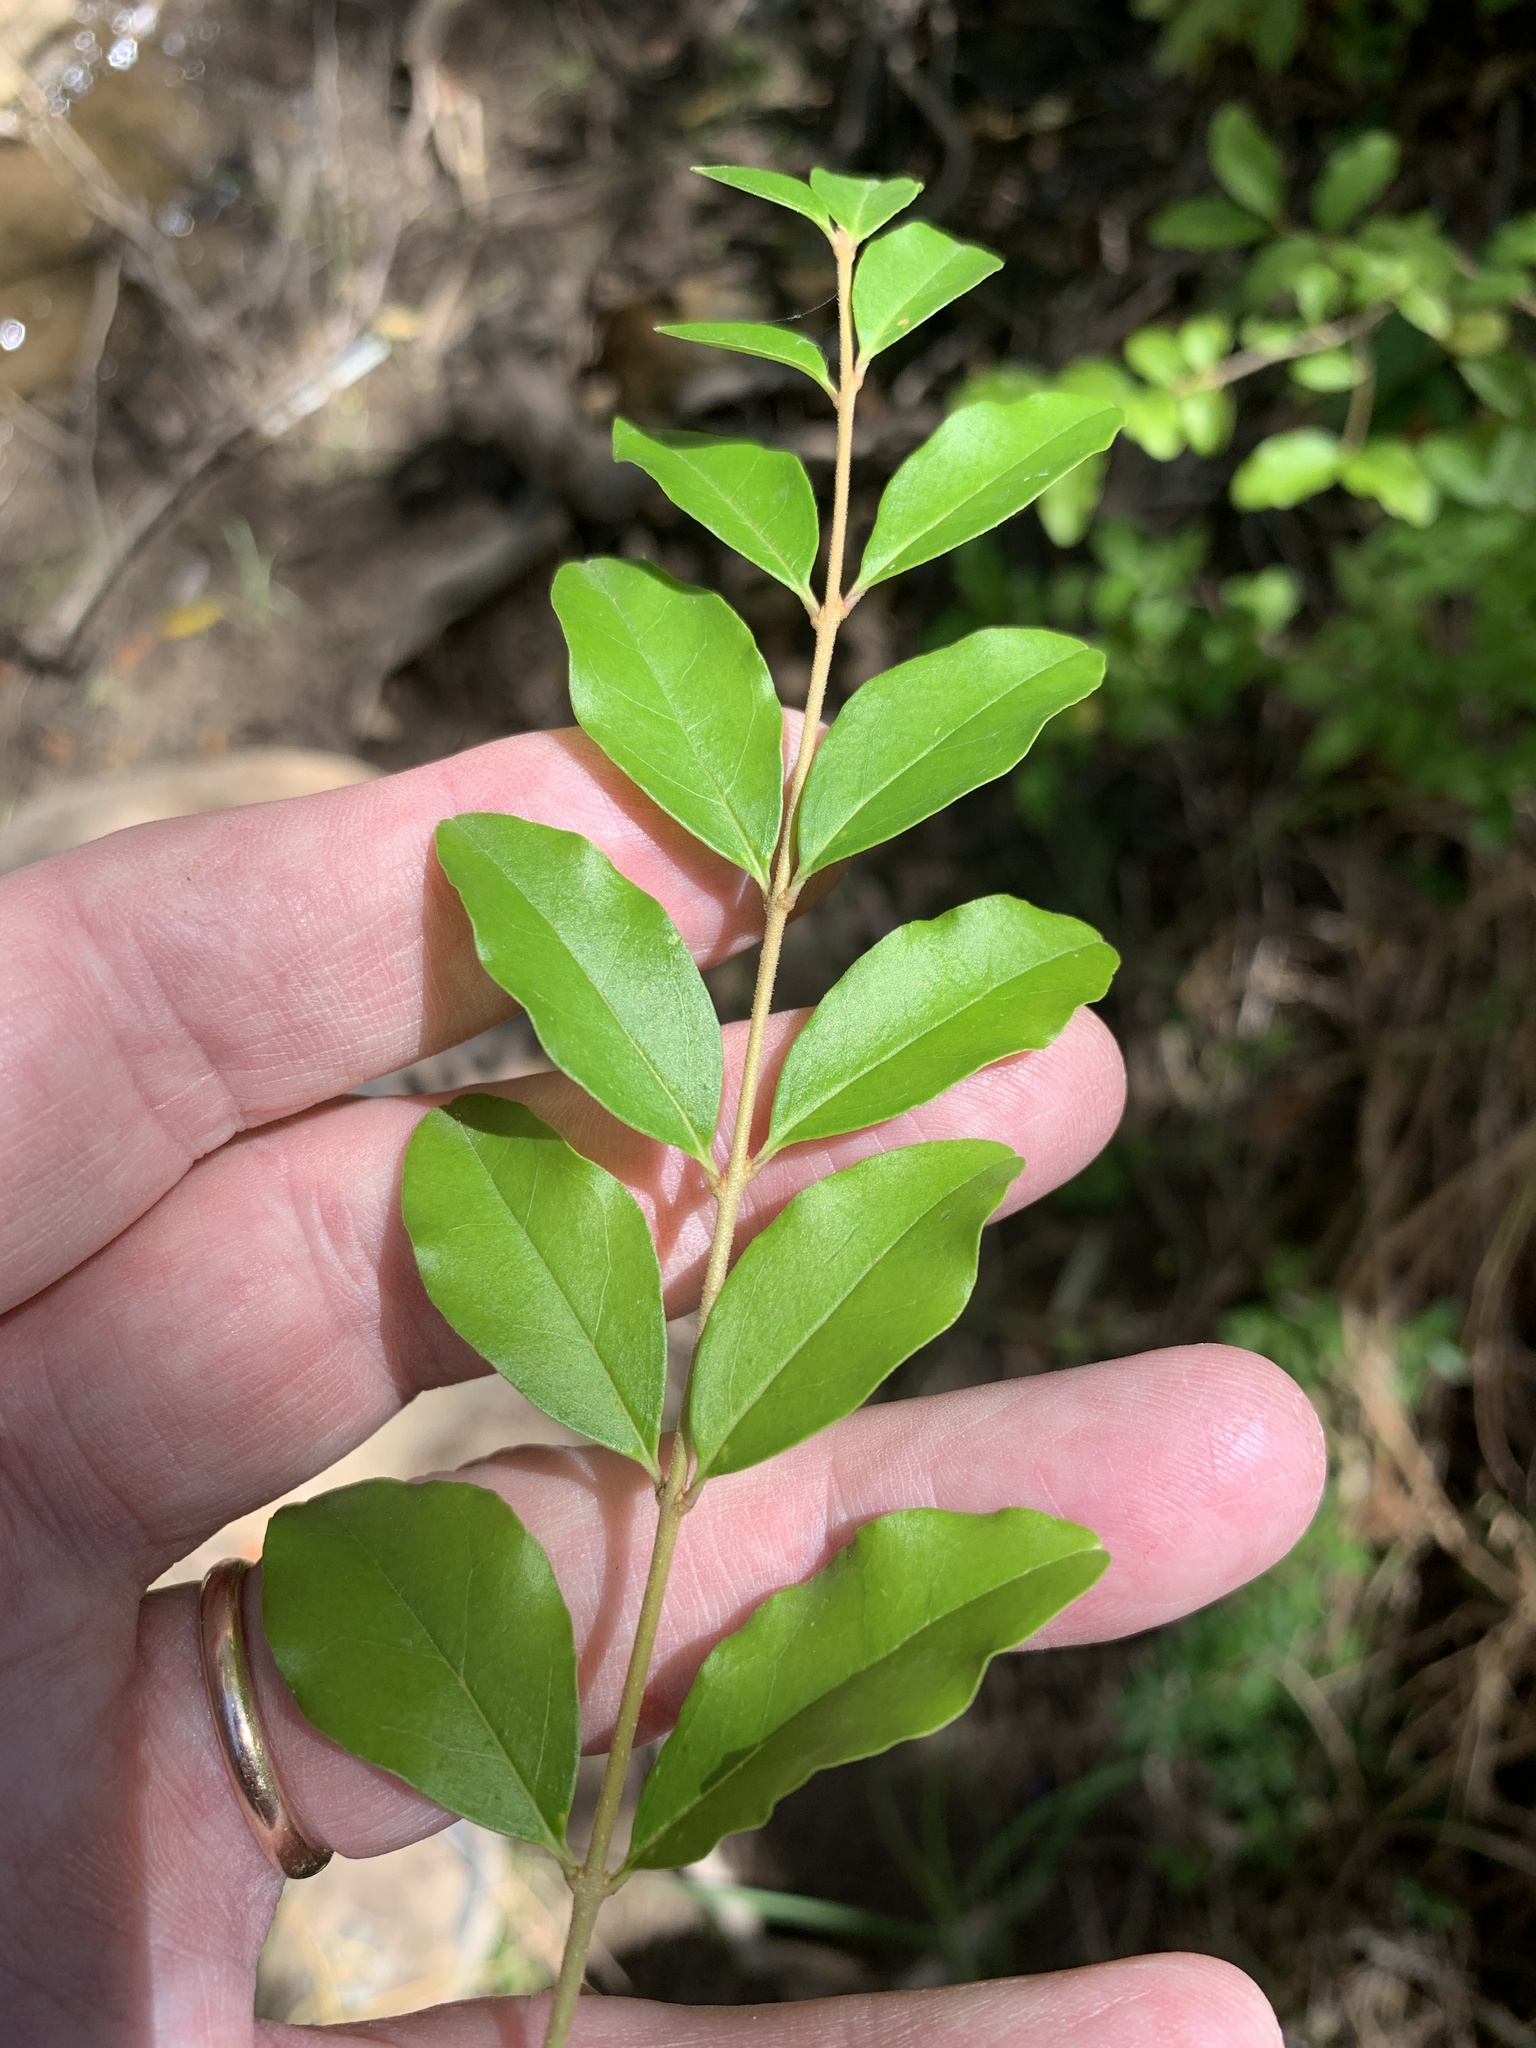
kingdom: Plantae
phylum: Tracheophyta
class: Magnoliopsida
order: Lamiales
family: Oleaceae
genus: Ligustrum
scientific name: Ligustrum sinense
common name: Chinese privet
